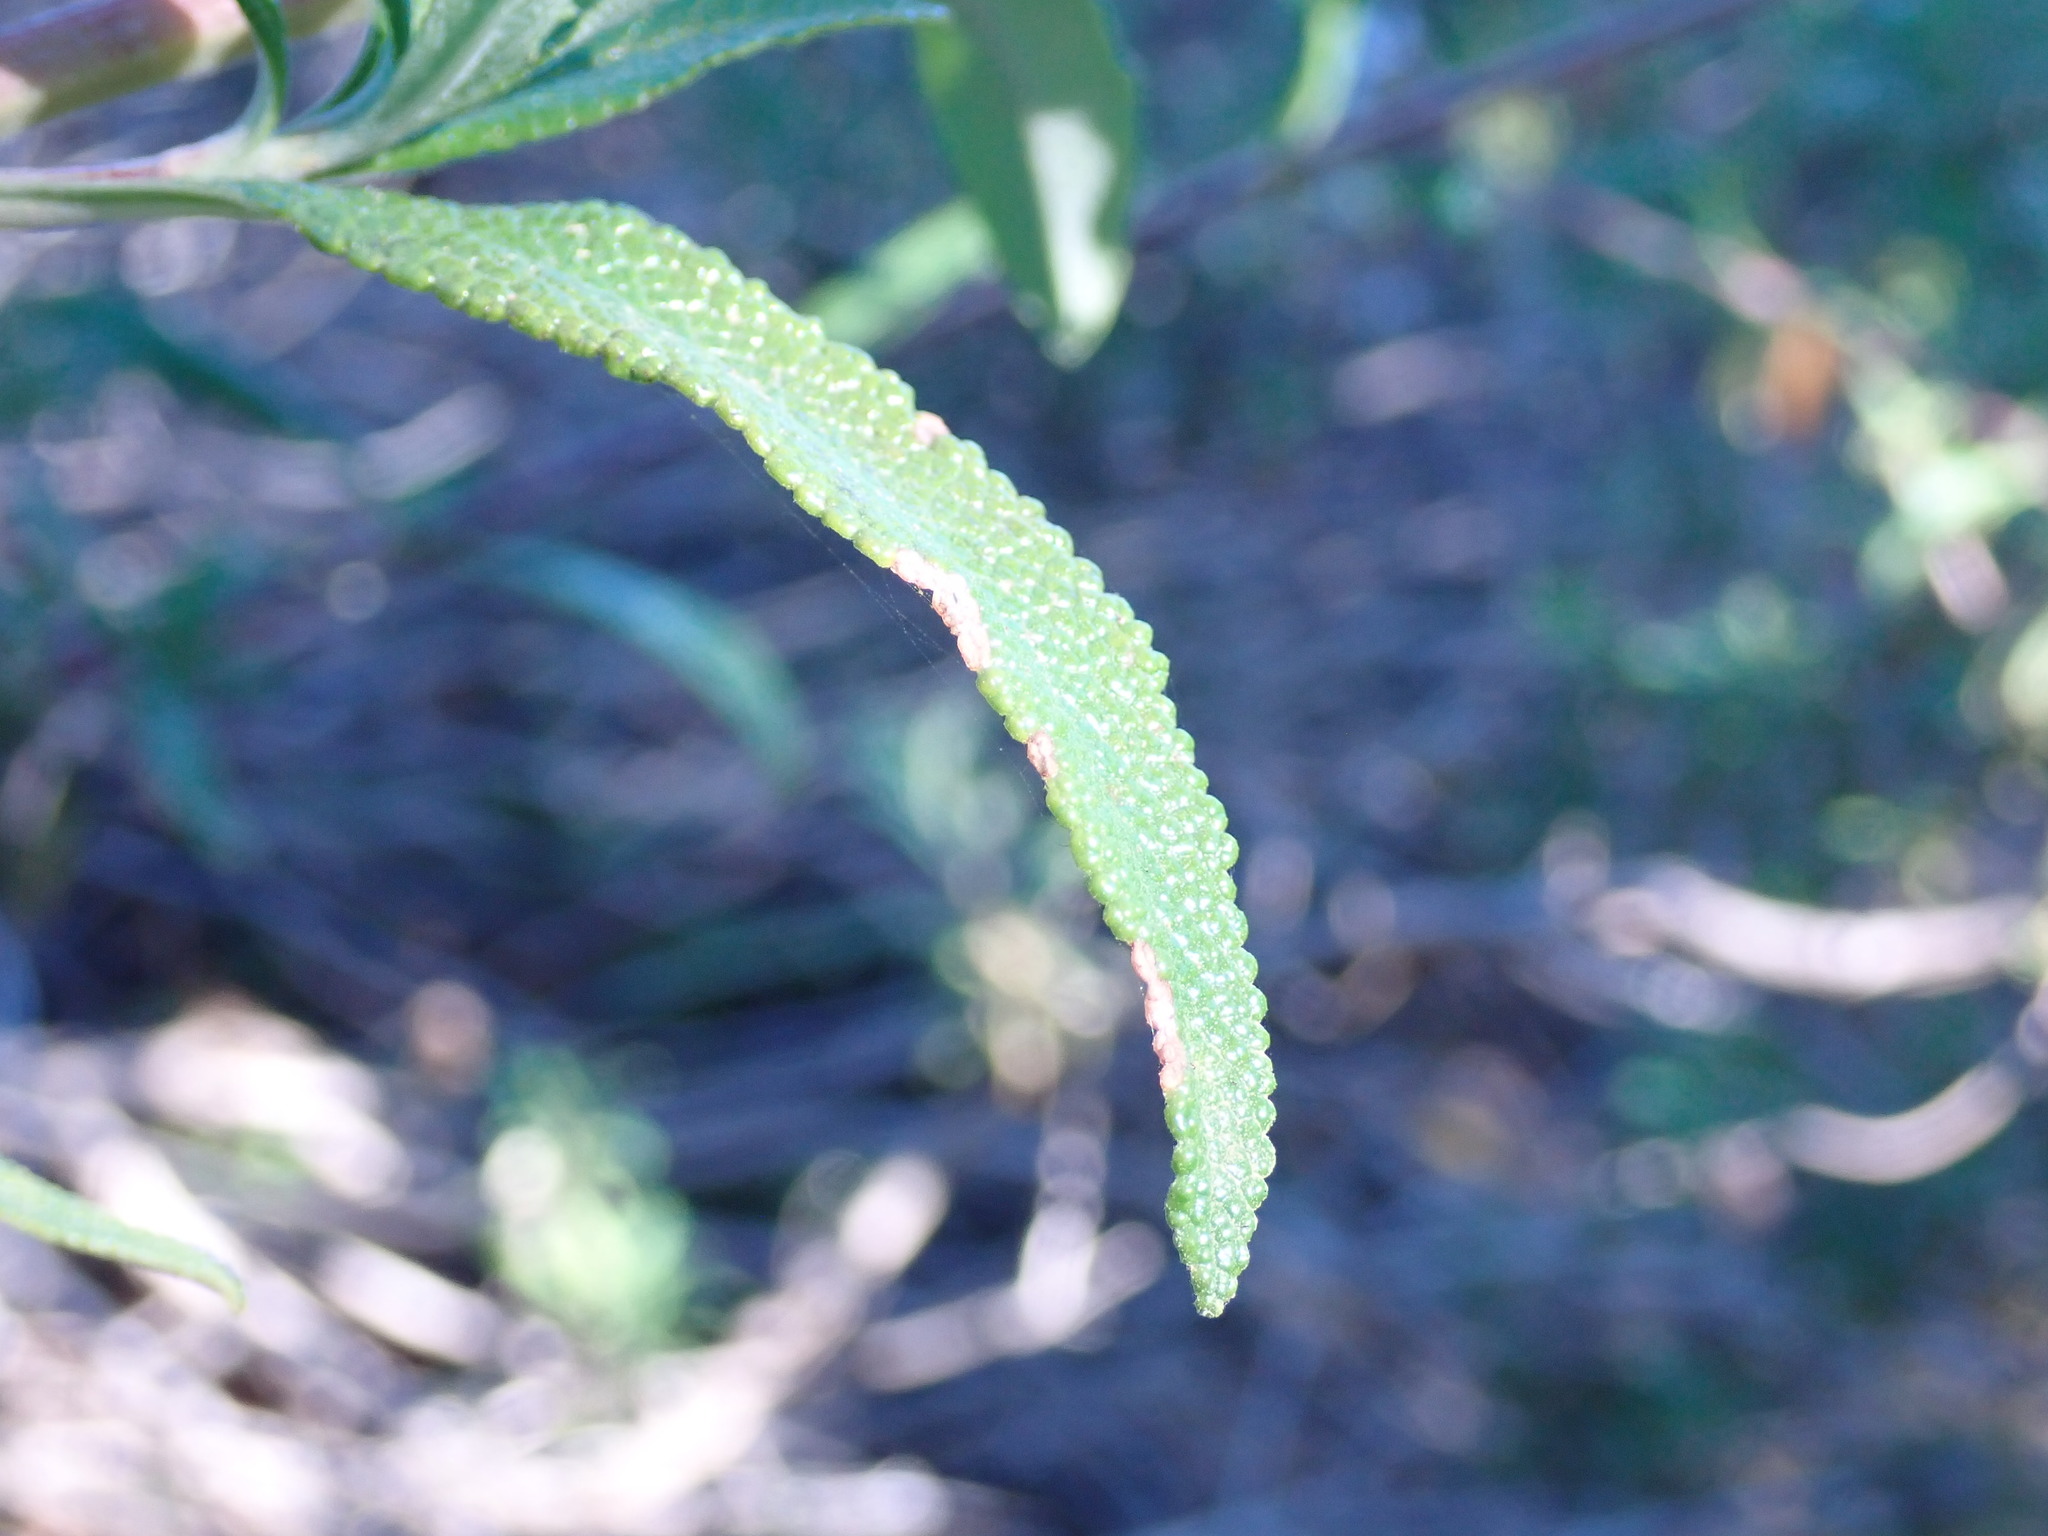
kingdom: Plantae
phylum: Tracheophyta
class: Magnoliopsida
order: Lamiales
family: Lamiaceae
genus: Salvia
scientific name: Salvia mellifera
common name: Black sage
